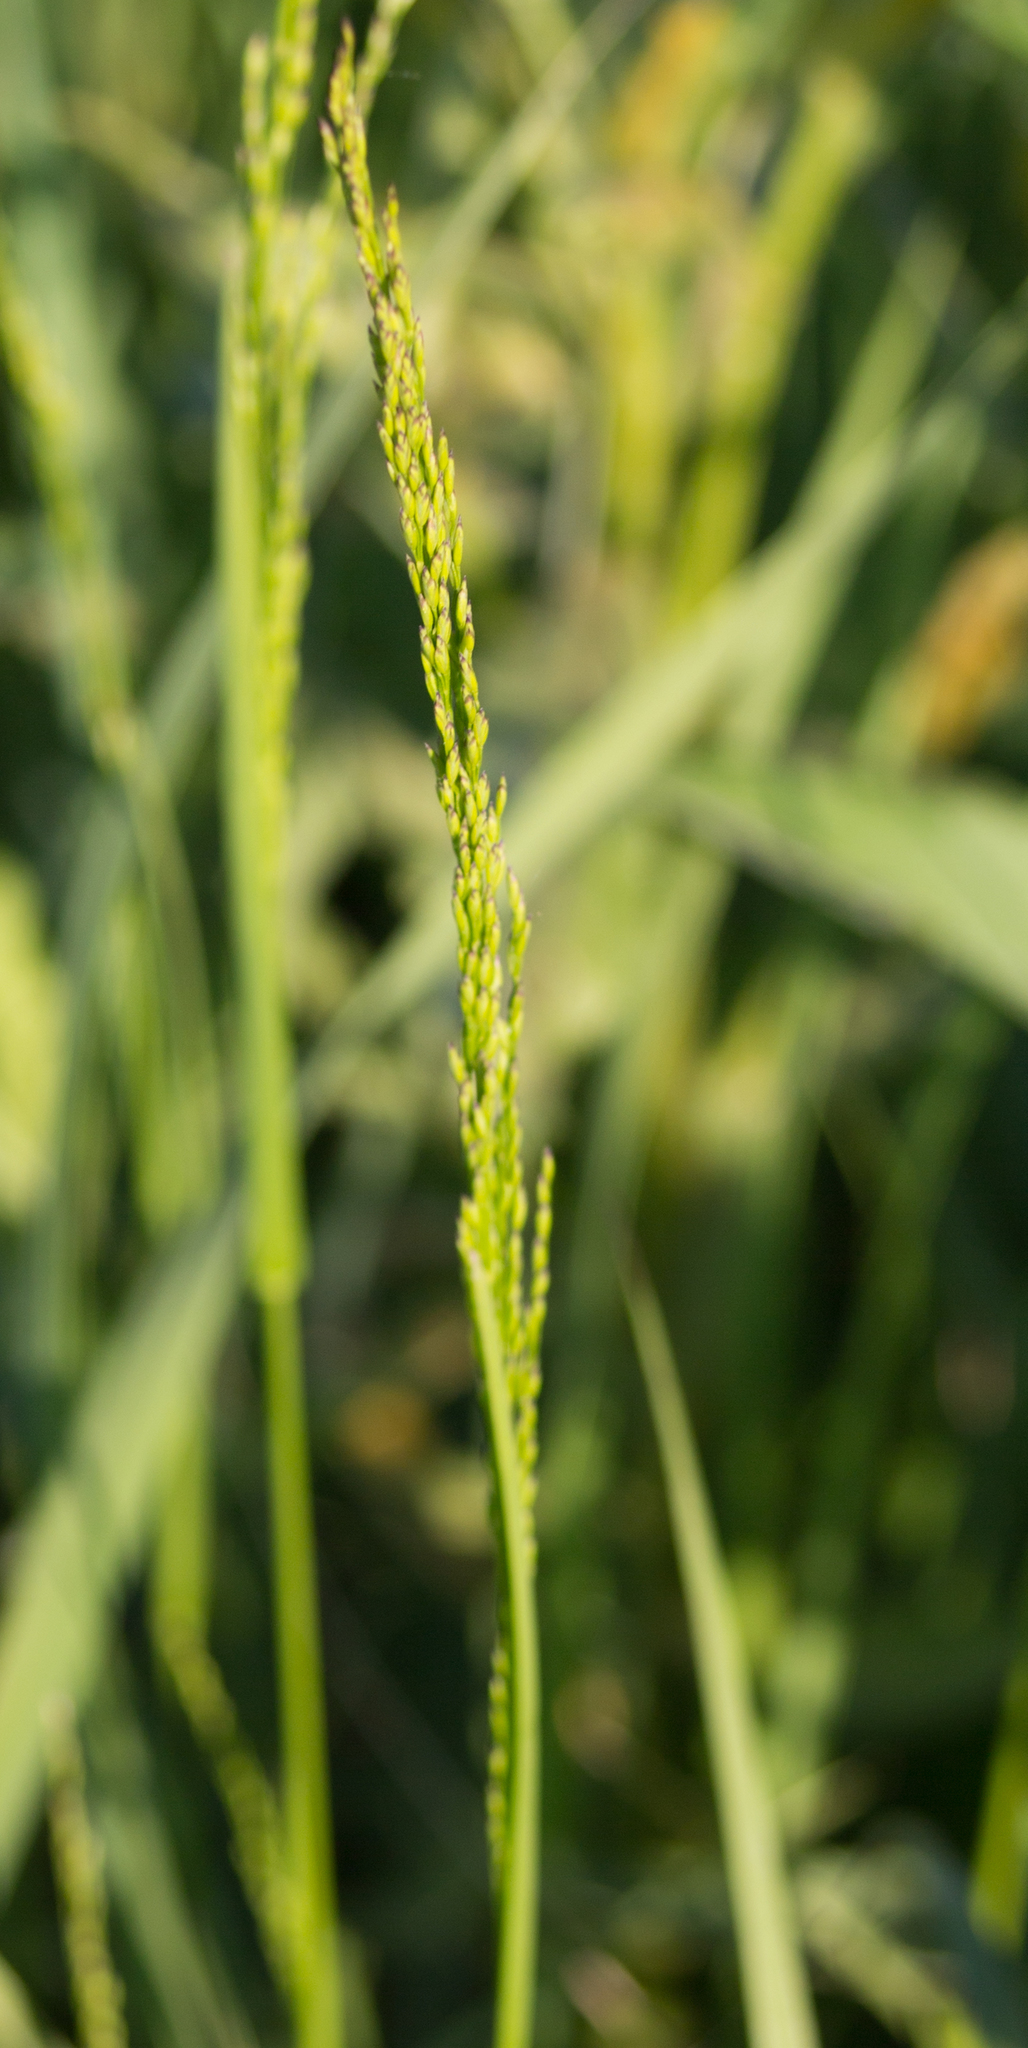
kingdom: Plantae
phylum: Tracheophyta
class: Liliopsida
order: Poales
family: Poaceae
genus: Poa
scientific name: Poa palustris
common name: Swamp meadow-grass
